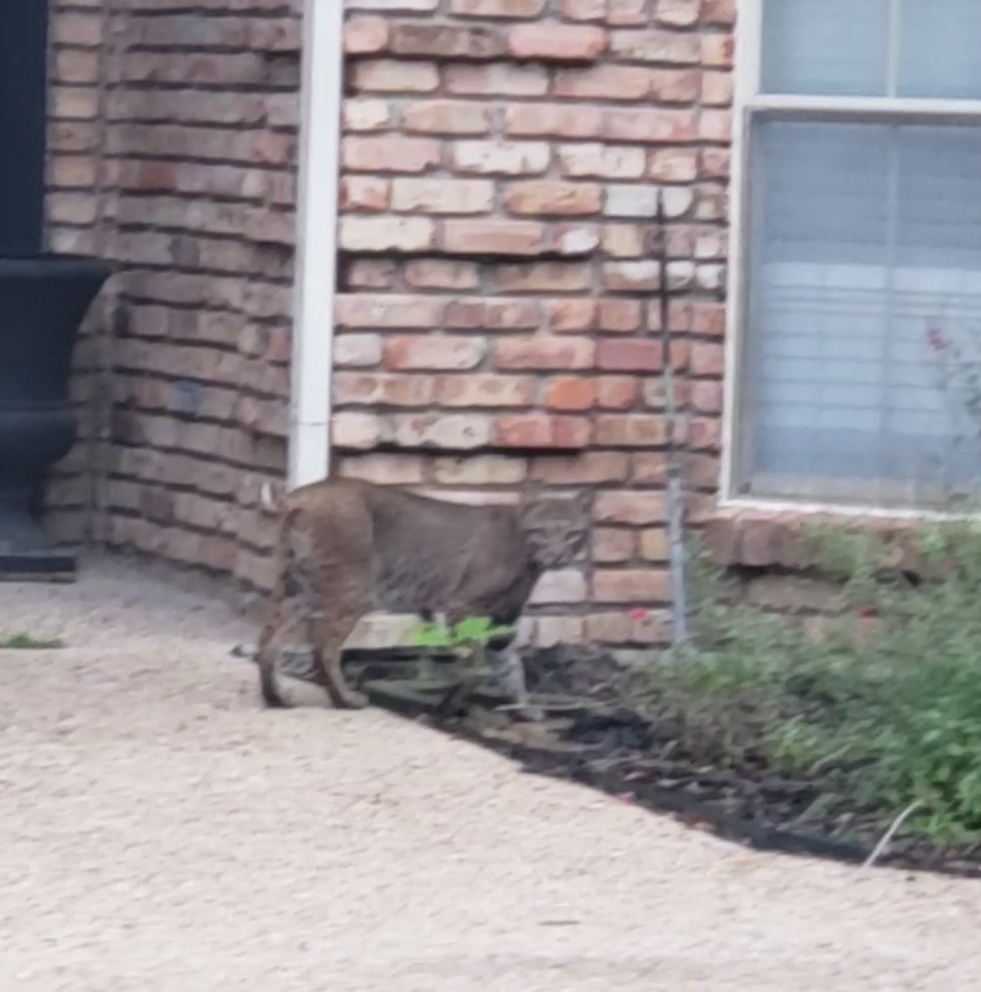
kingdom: Animalia
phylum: Chordata
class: Mammalia
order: Carnivora
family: Felidae
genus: Lynx
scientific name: Lynx rufus
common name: Bobcat
